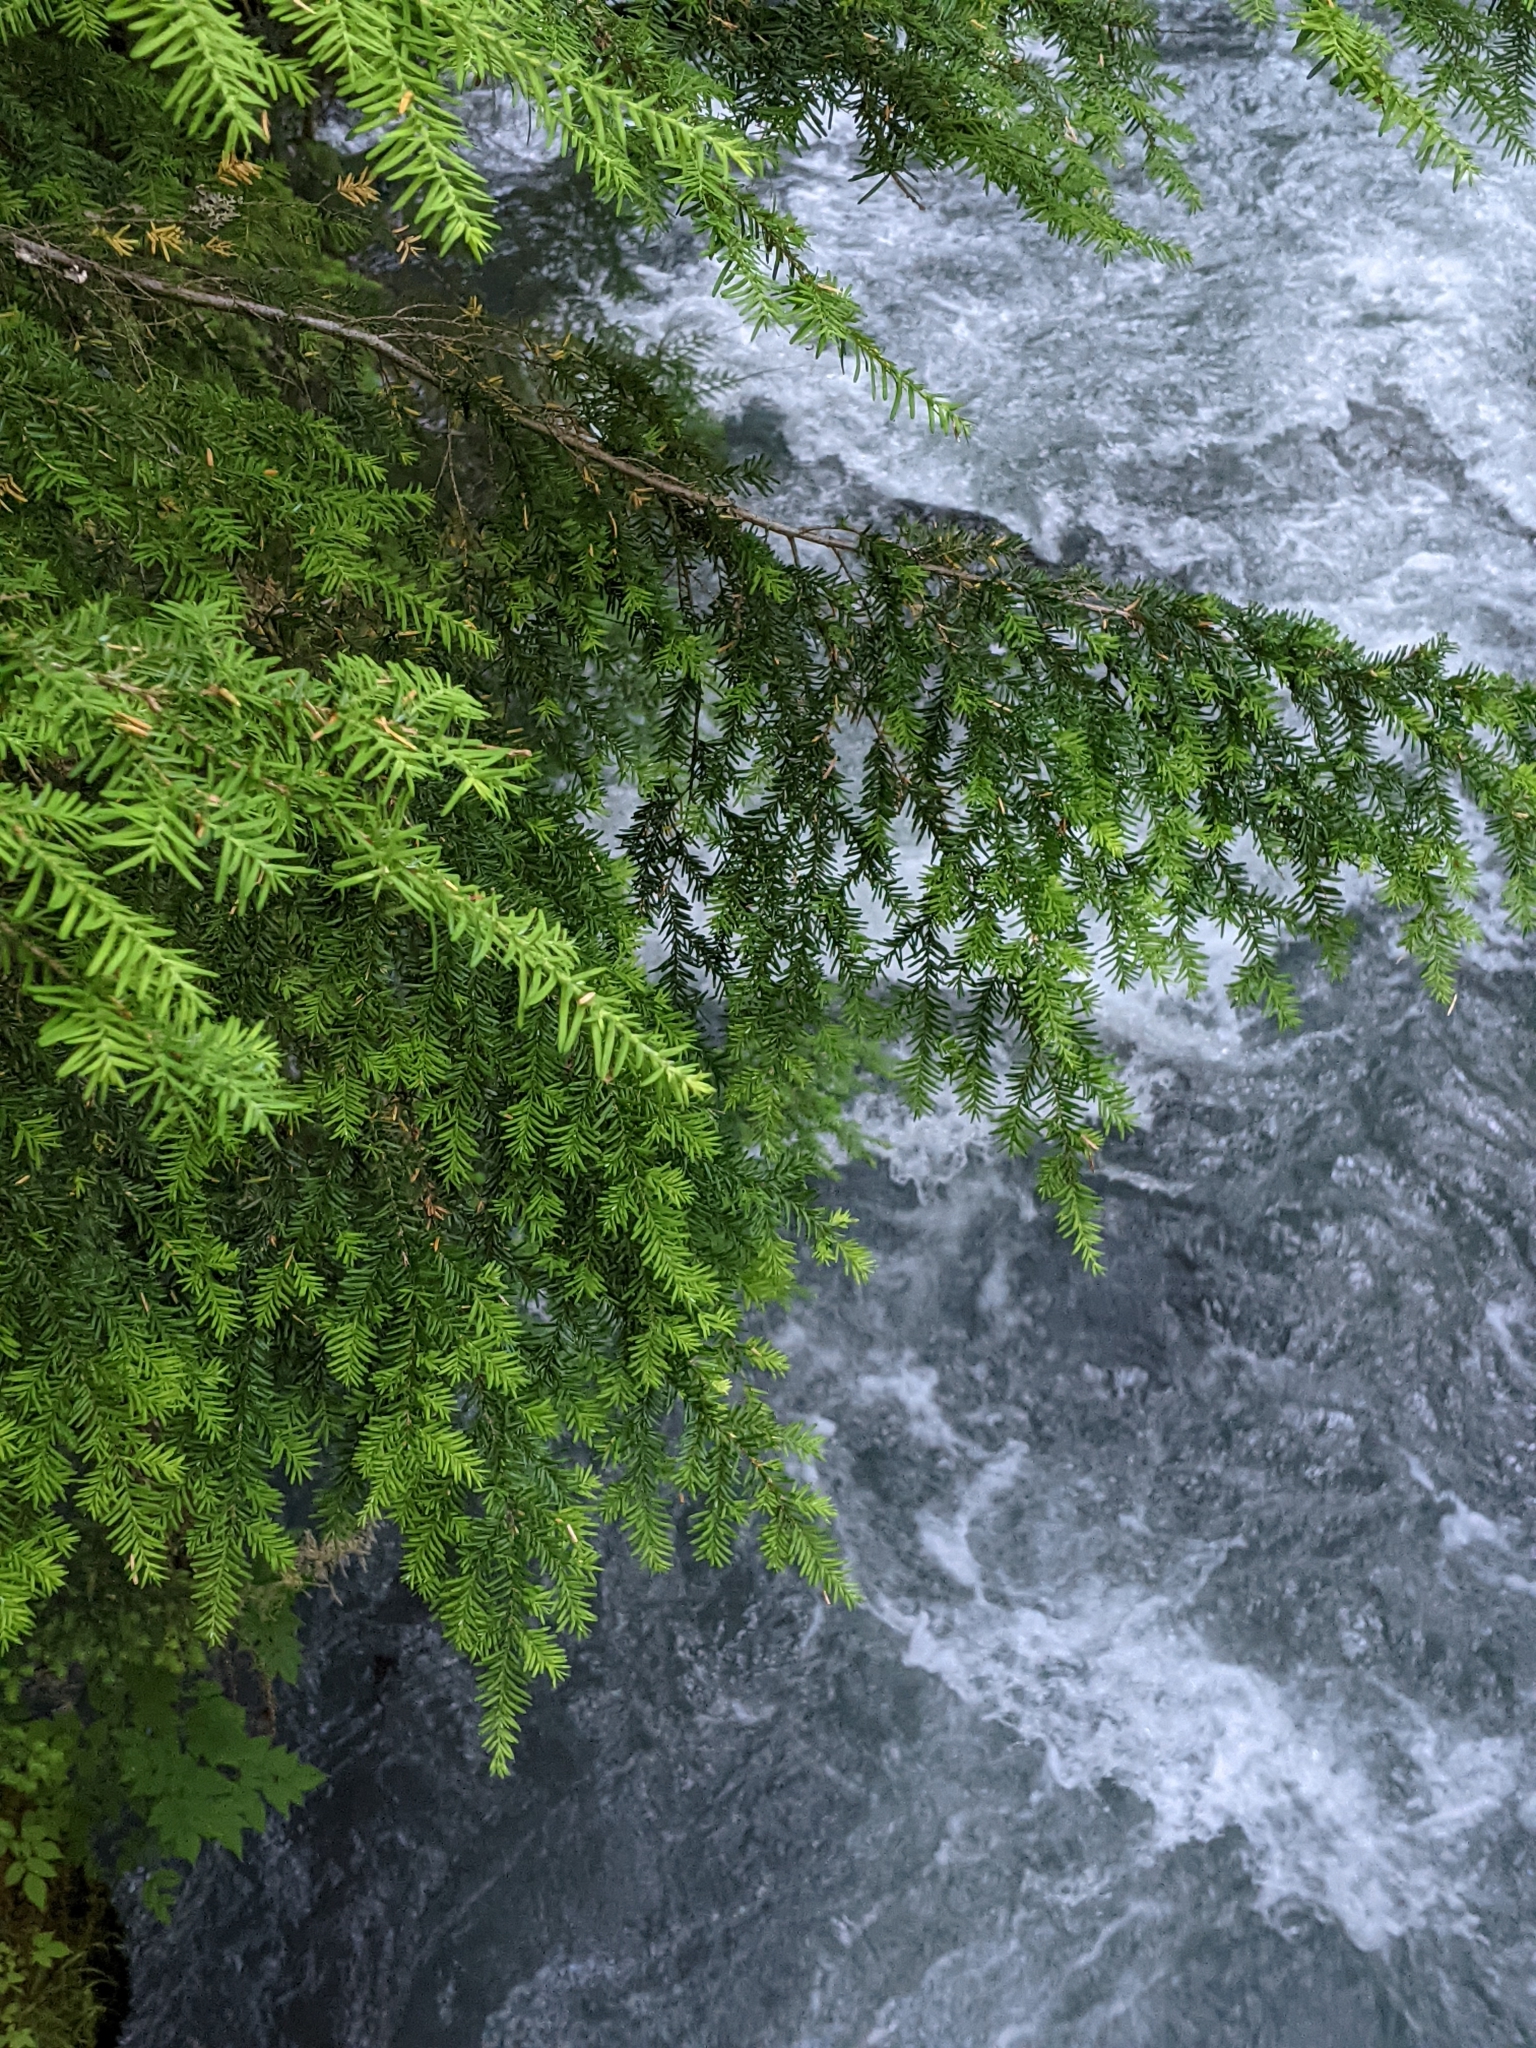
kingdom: Plantae
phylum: Tracheophyta
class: Pinopsida
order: Pinales
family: Pinaceae
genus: Tsuga
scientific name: Tsuga heterophylla
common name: Western hemlock
